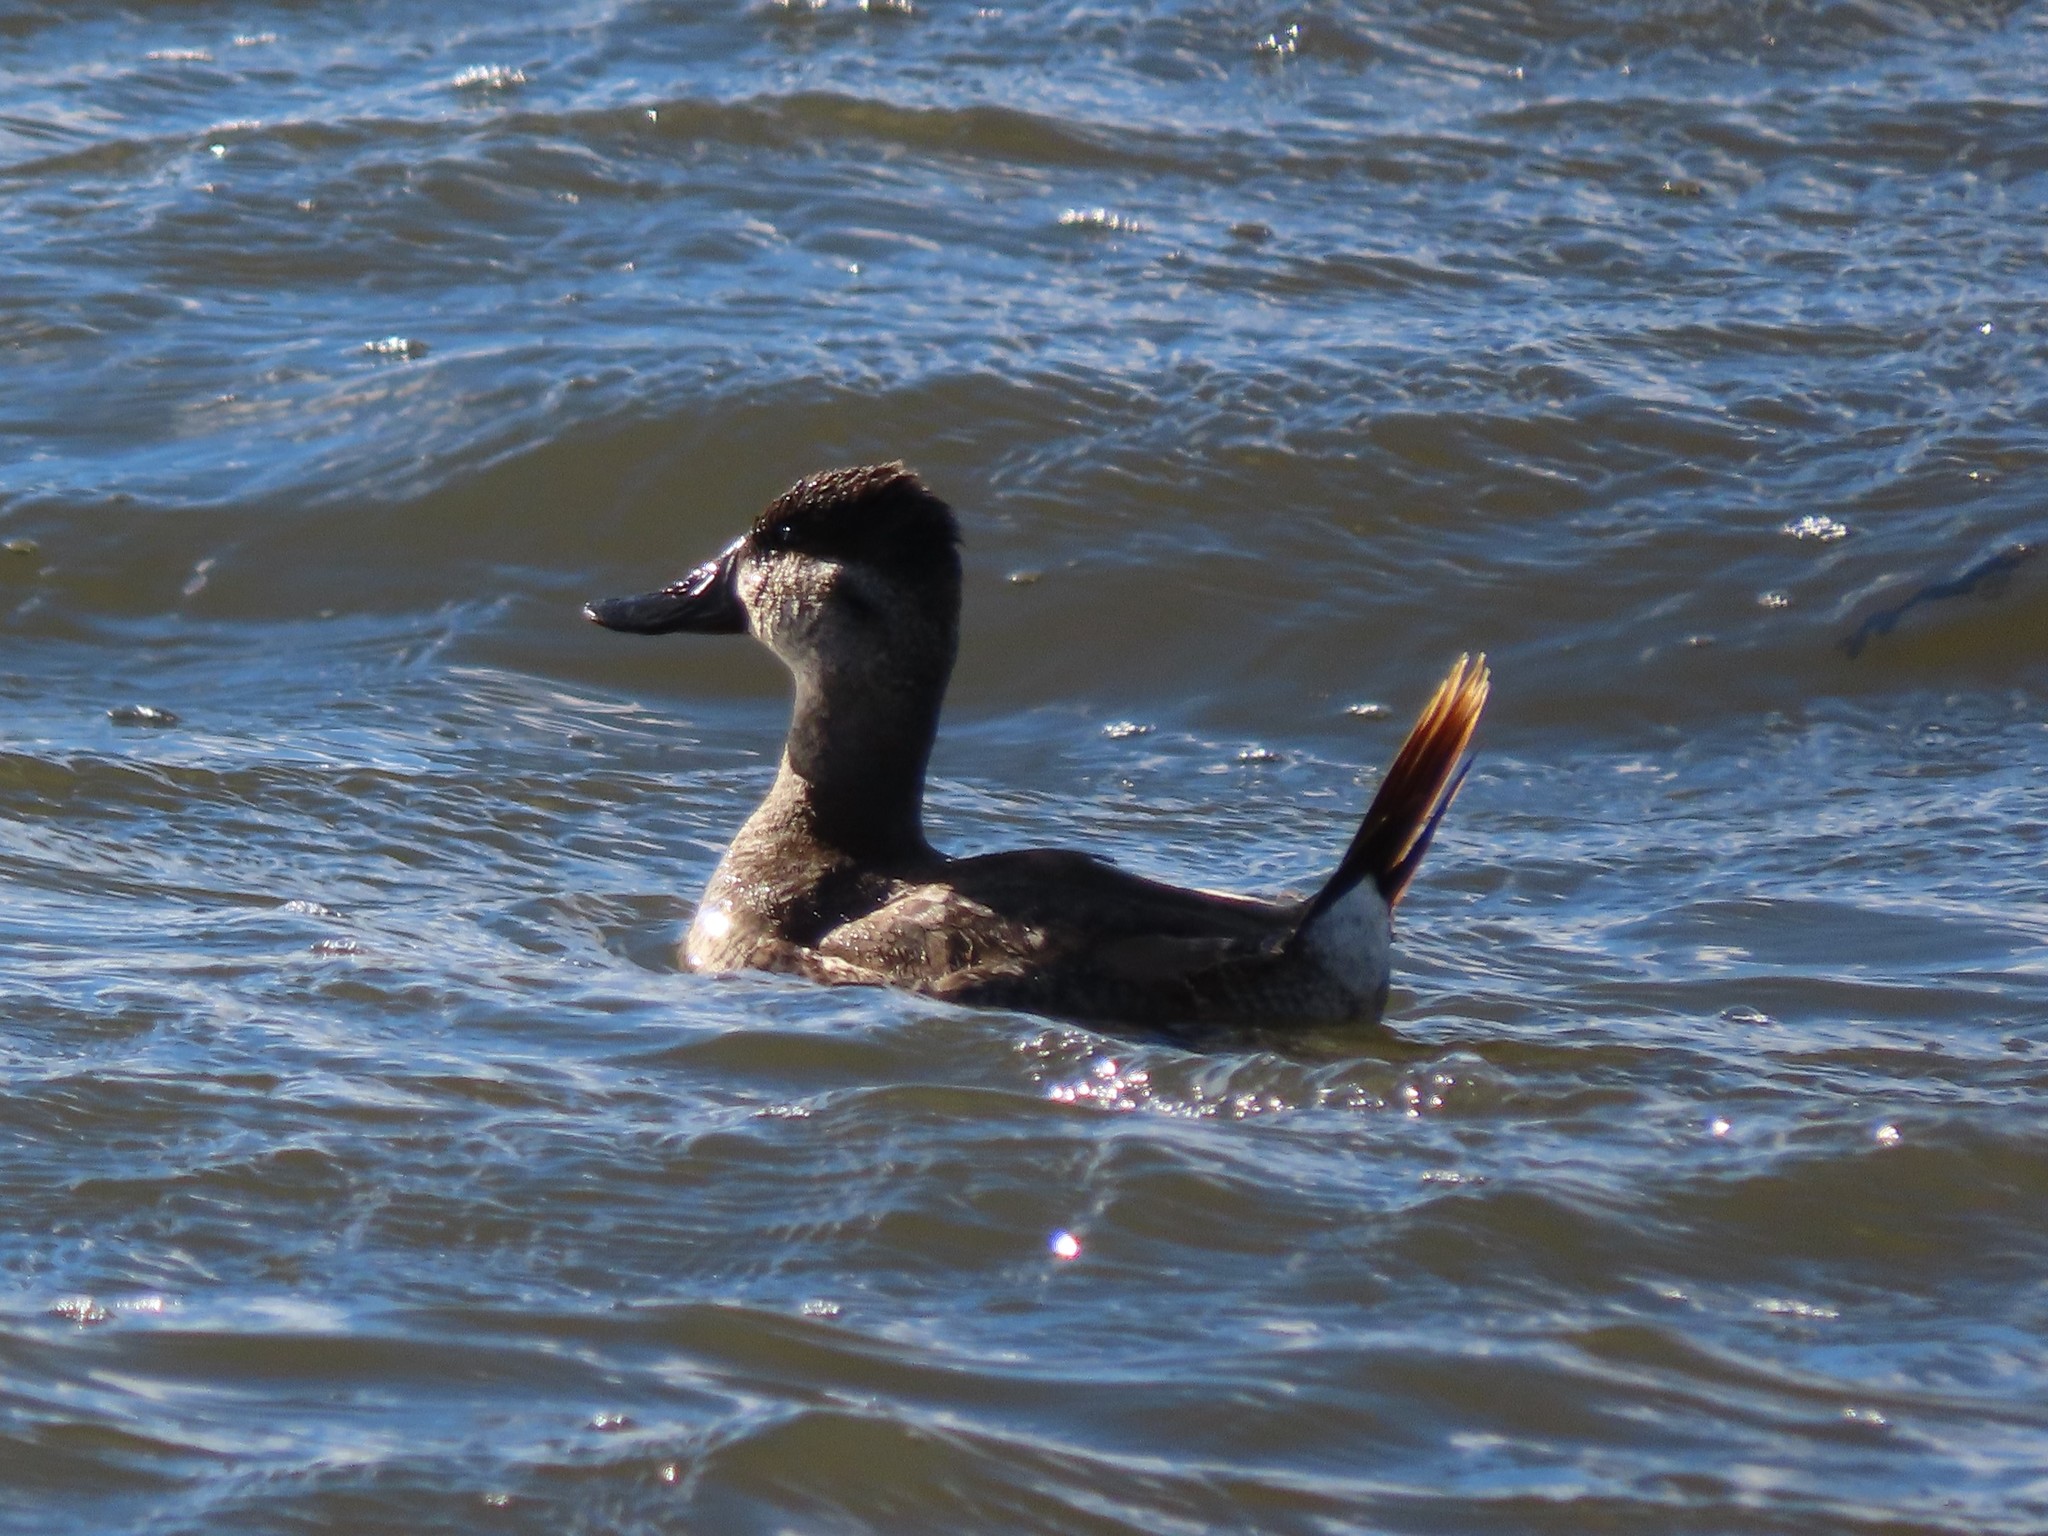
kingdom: Animalia
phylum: Chordata
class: Aves
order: Anseriformes
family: Anatidae
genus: Oxyura
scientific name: Oxyura jamaicensis
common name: Ruddy duck
